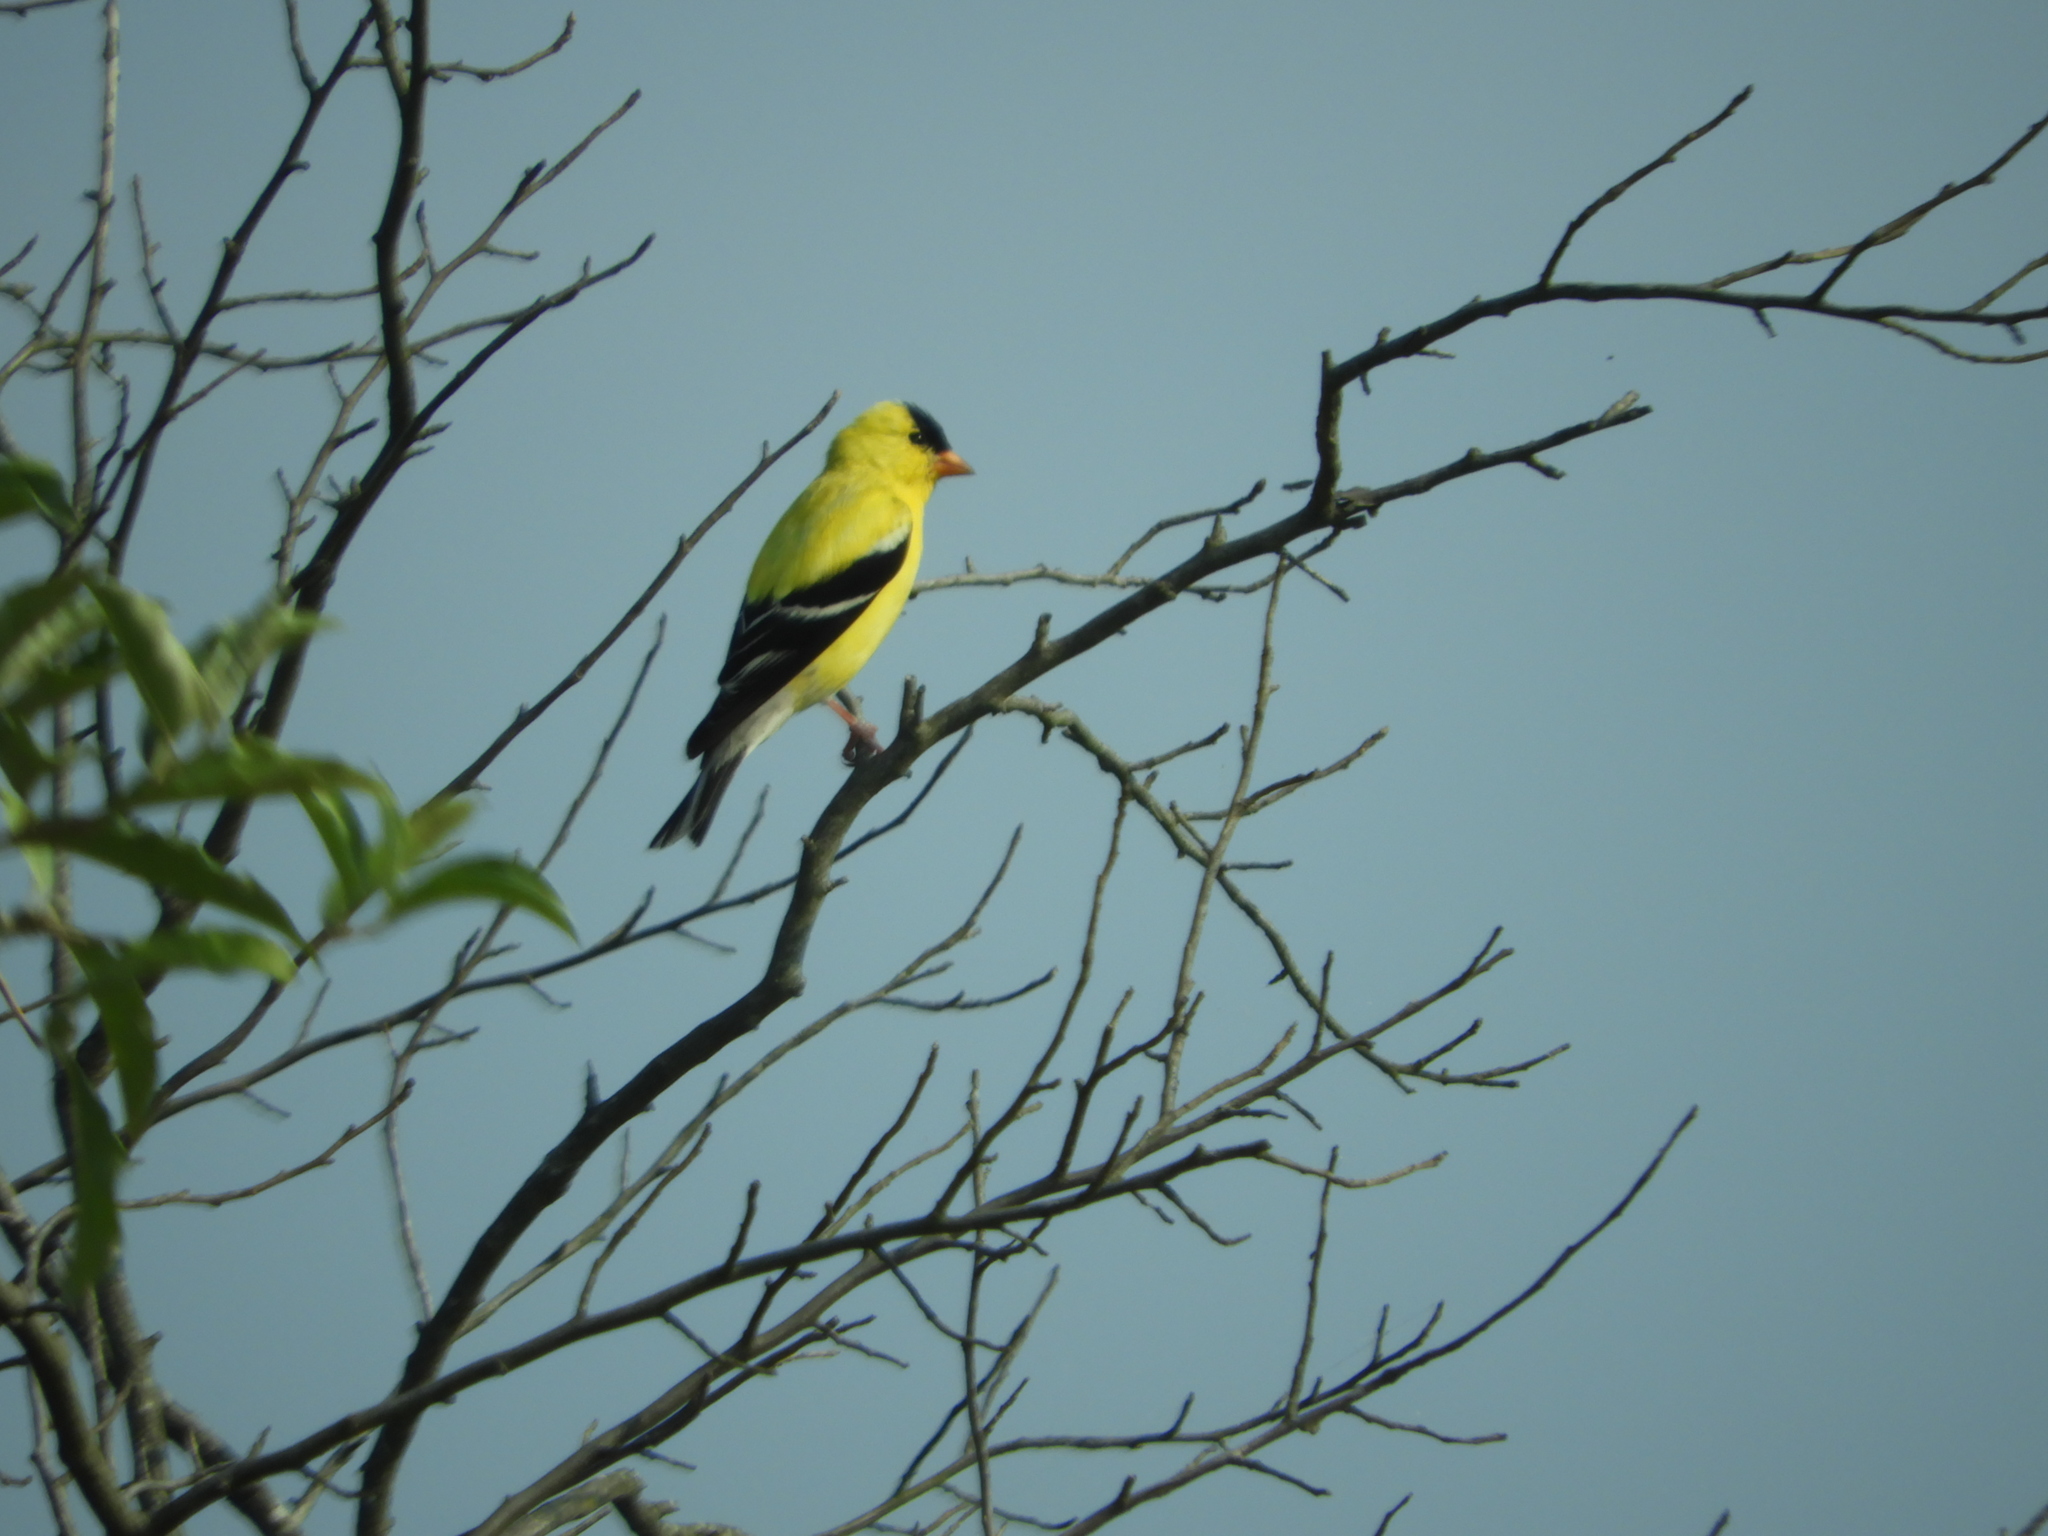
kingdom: Animalia
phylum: Chordata
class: Aves
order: Passeriformes
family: Fringillidae
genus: Spinus
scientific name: Spinus tristis
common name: American goldfinch
